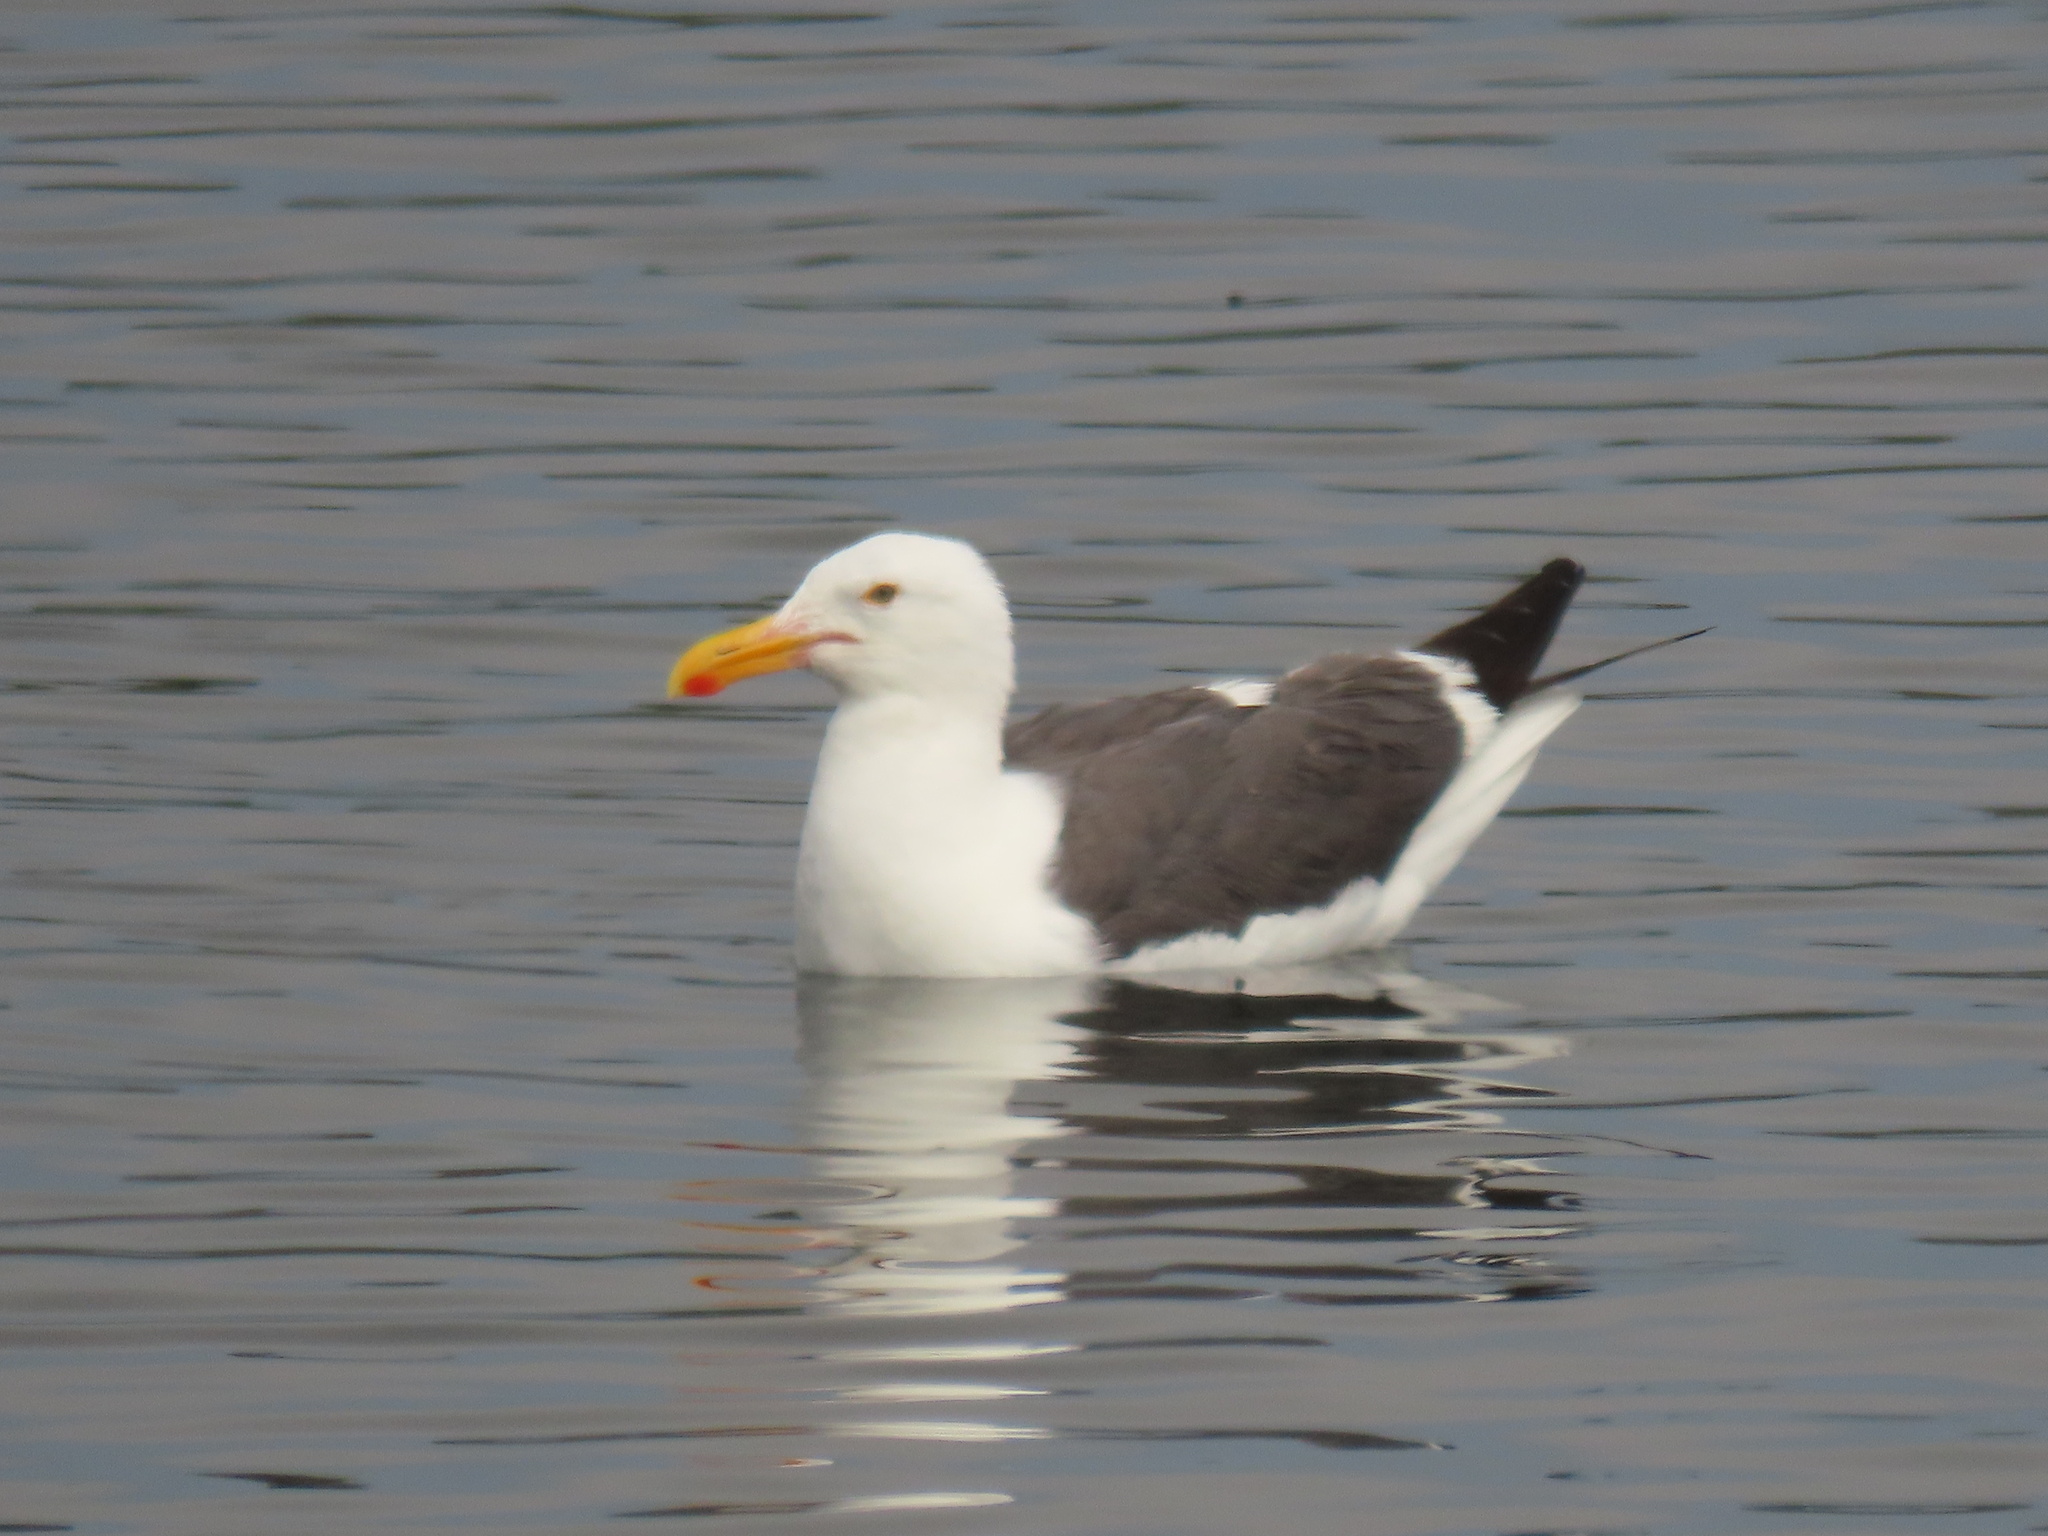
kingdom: Animalia
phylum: Chordata
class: Aves
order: Charadriiformes
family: Laridae
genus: Larus
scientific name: Larus occidentalis
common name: Western gull
